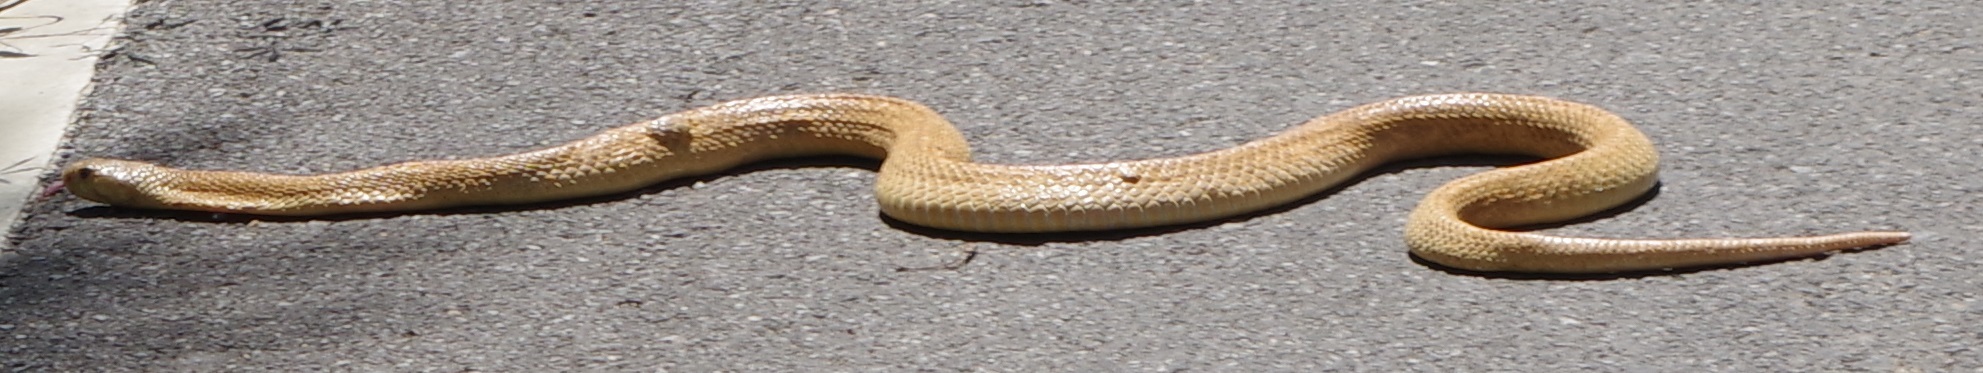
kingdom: Animalia
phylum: Chordata
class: Squamata
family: Elapidae
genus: Naja
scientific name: Naja sumatrana
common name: Equatorial spitting cobra
